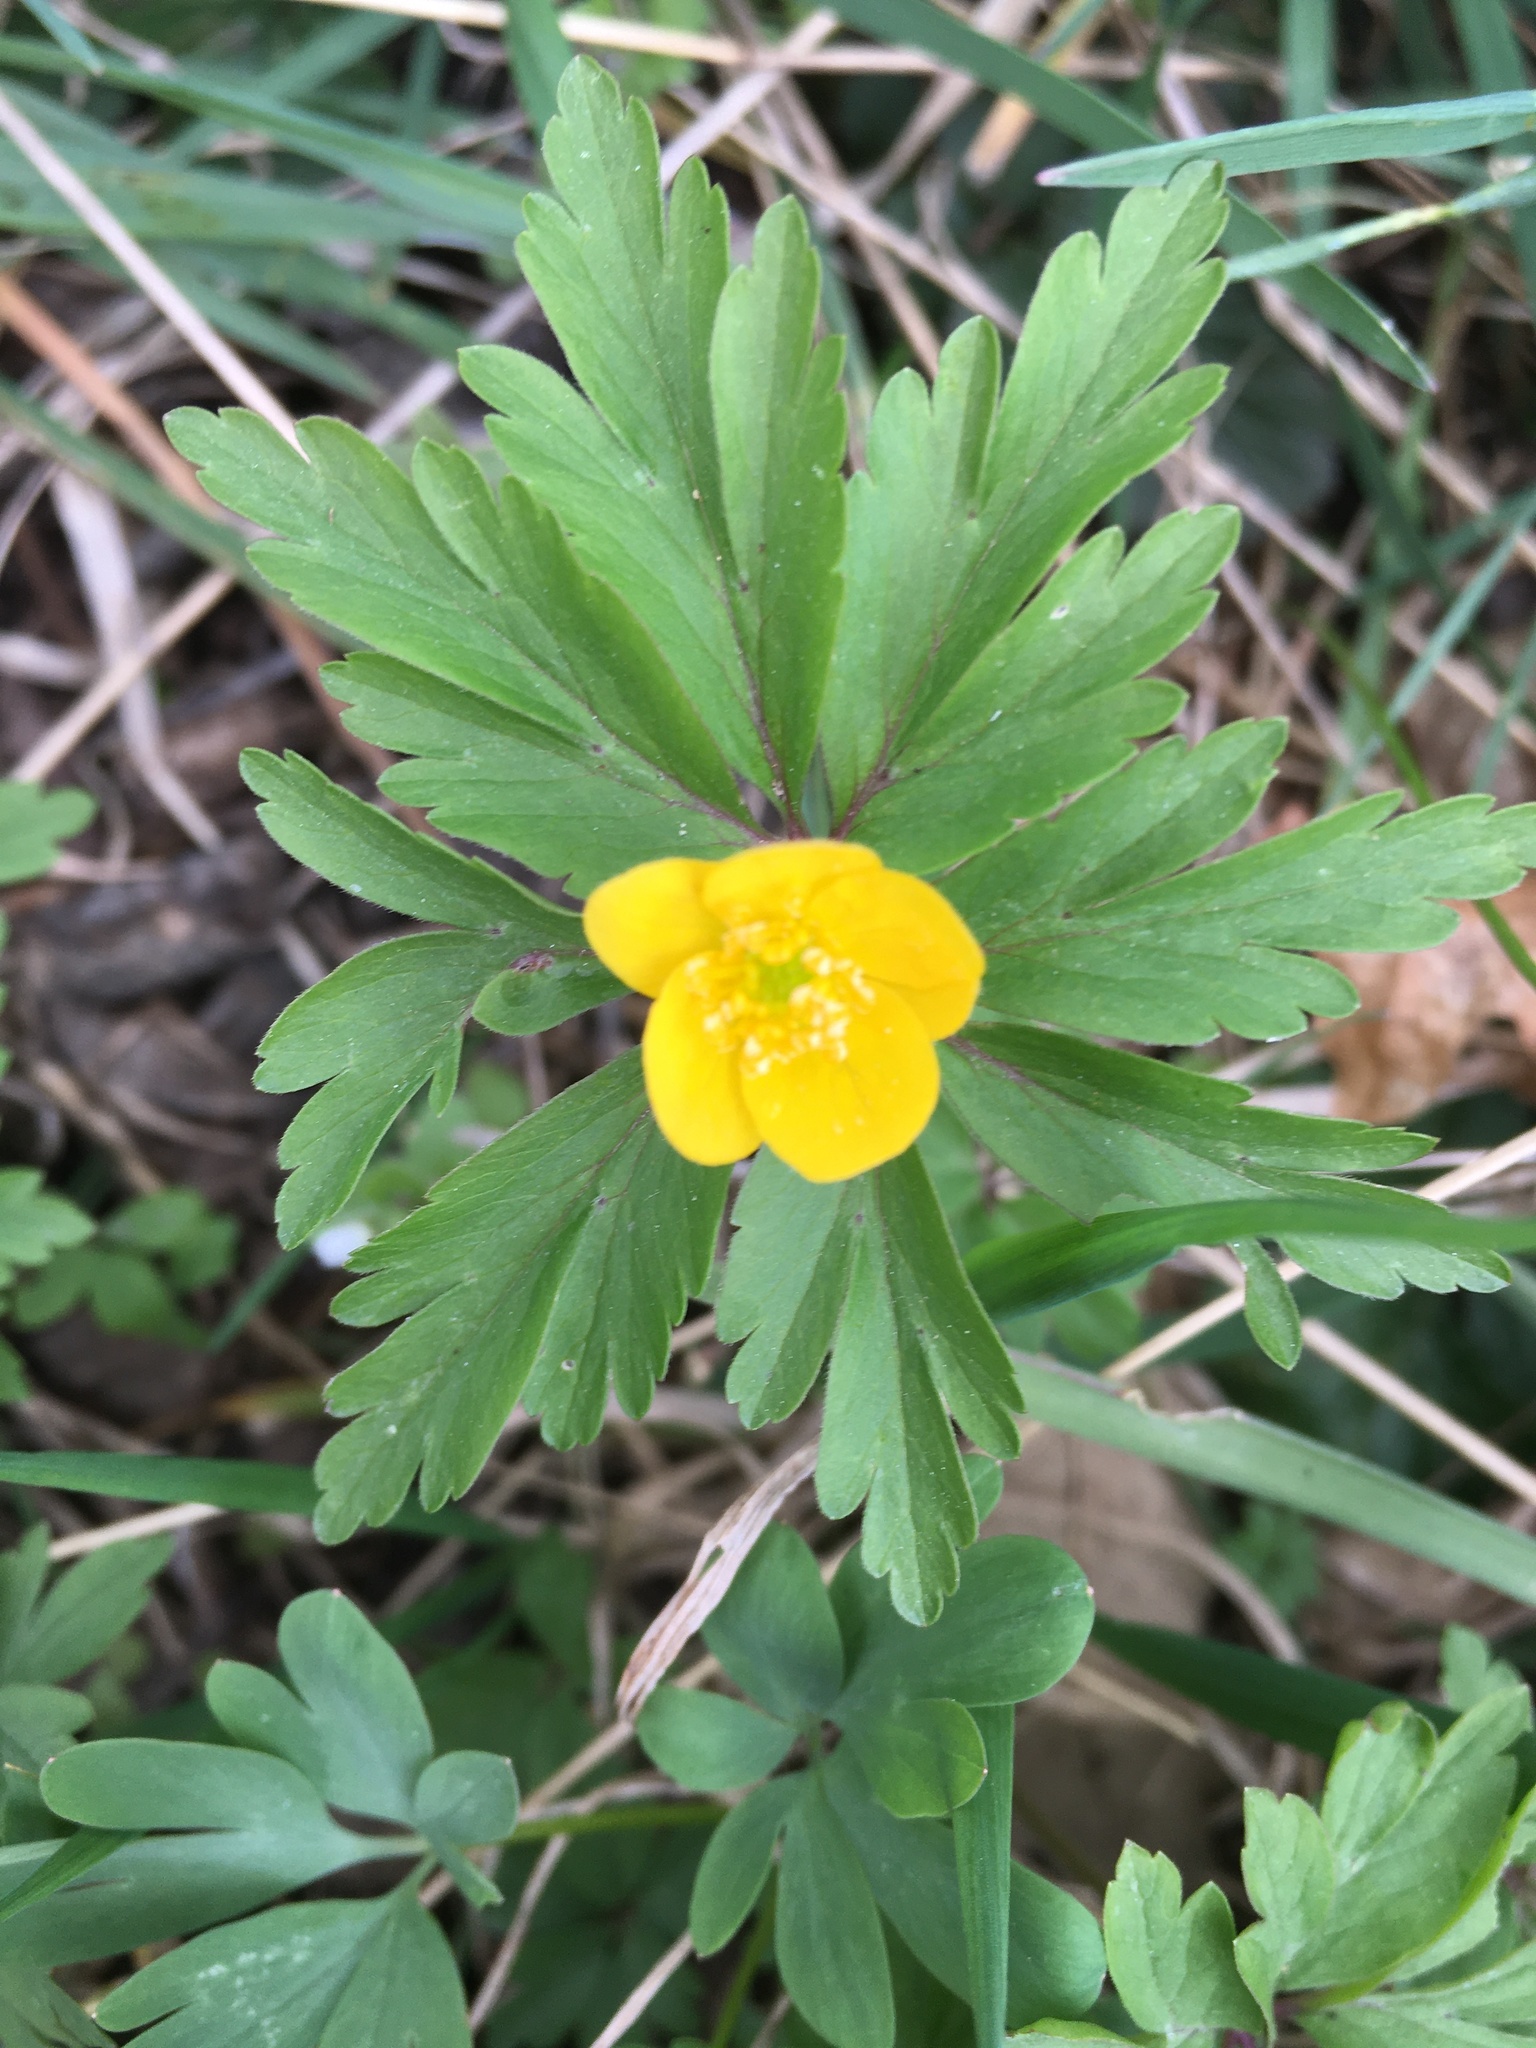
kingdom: Plantae
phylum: Tracheophyta
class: Magnoliopsida
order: Ranunculales
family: Ranunculaceae
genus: Anemone
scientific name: Anemone ranunculoides
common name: Yellow anemone
